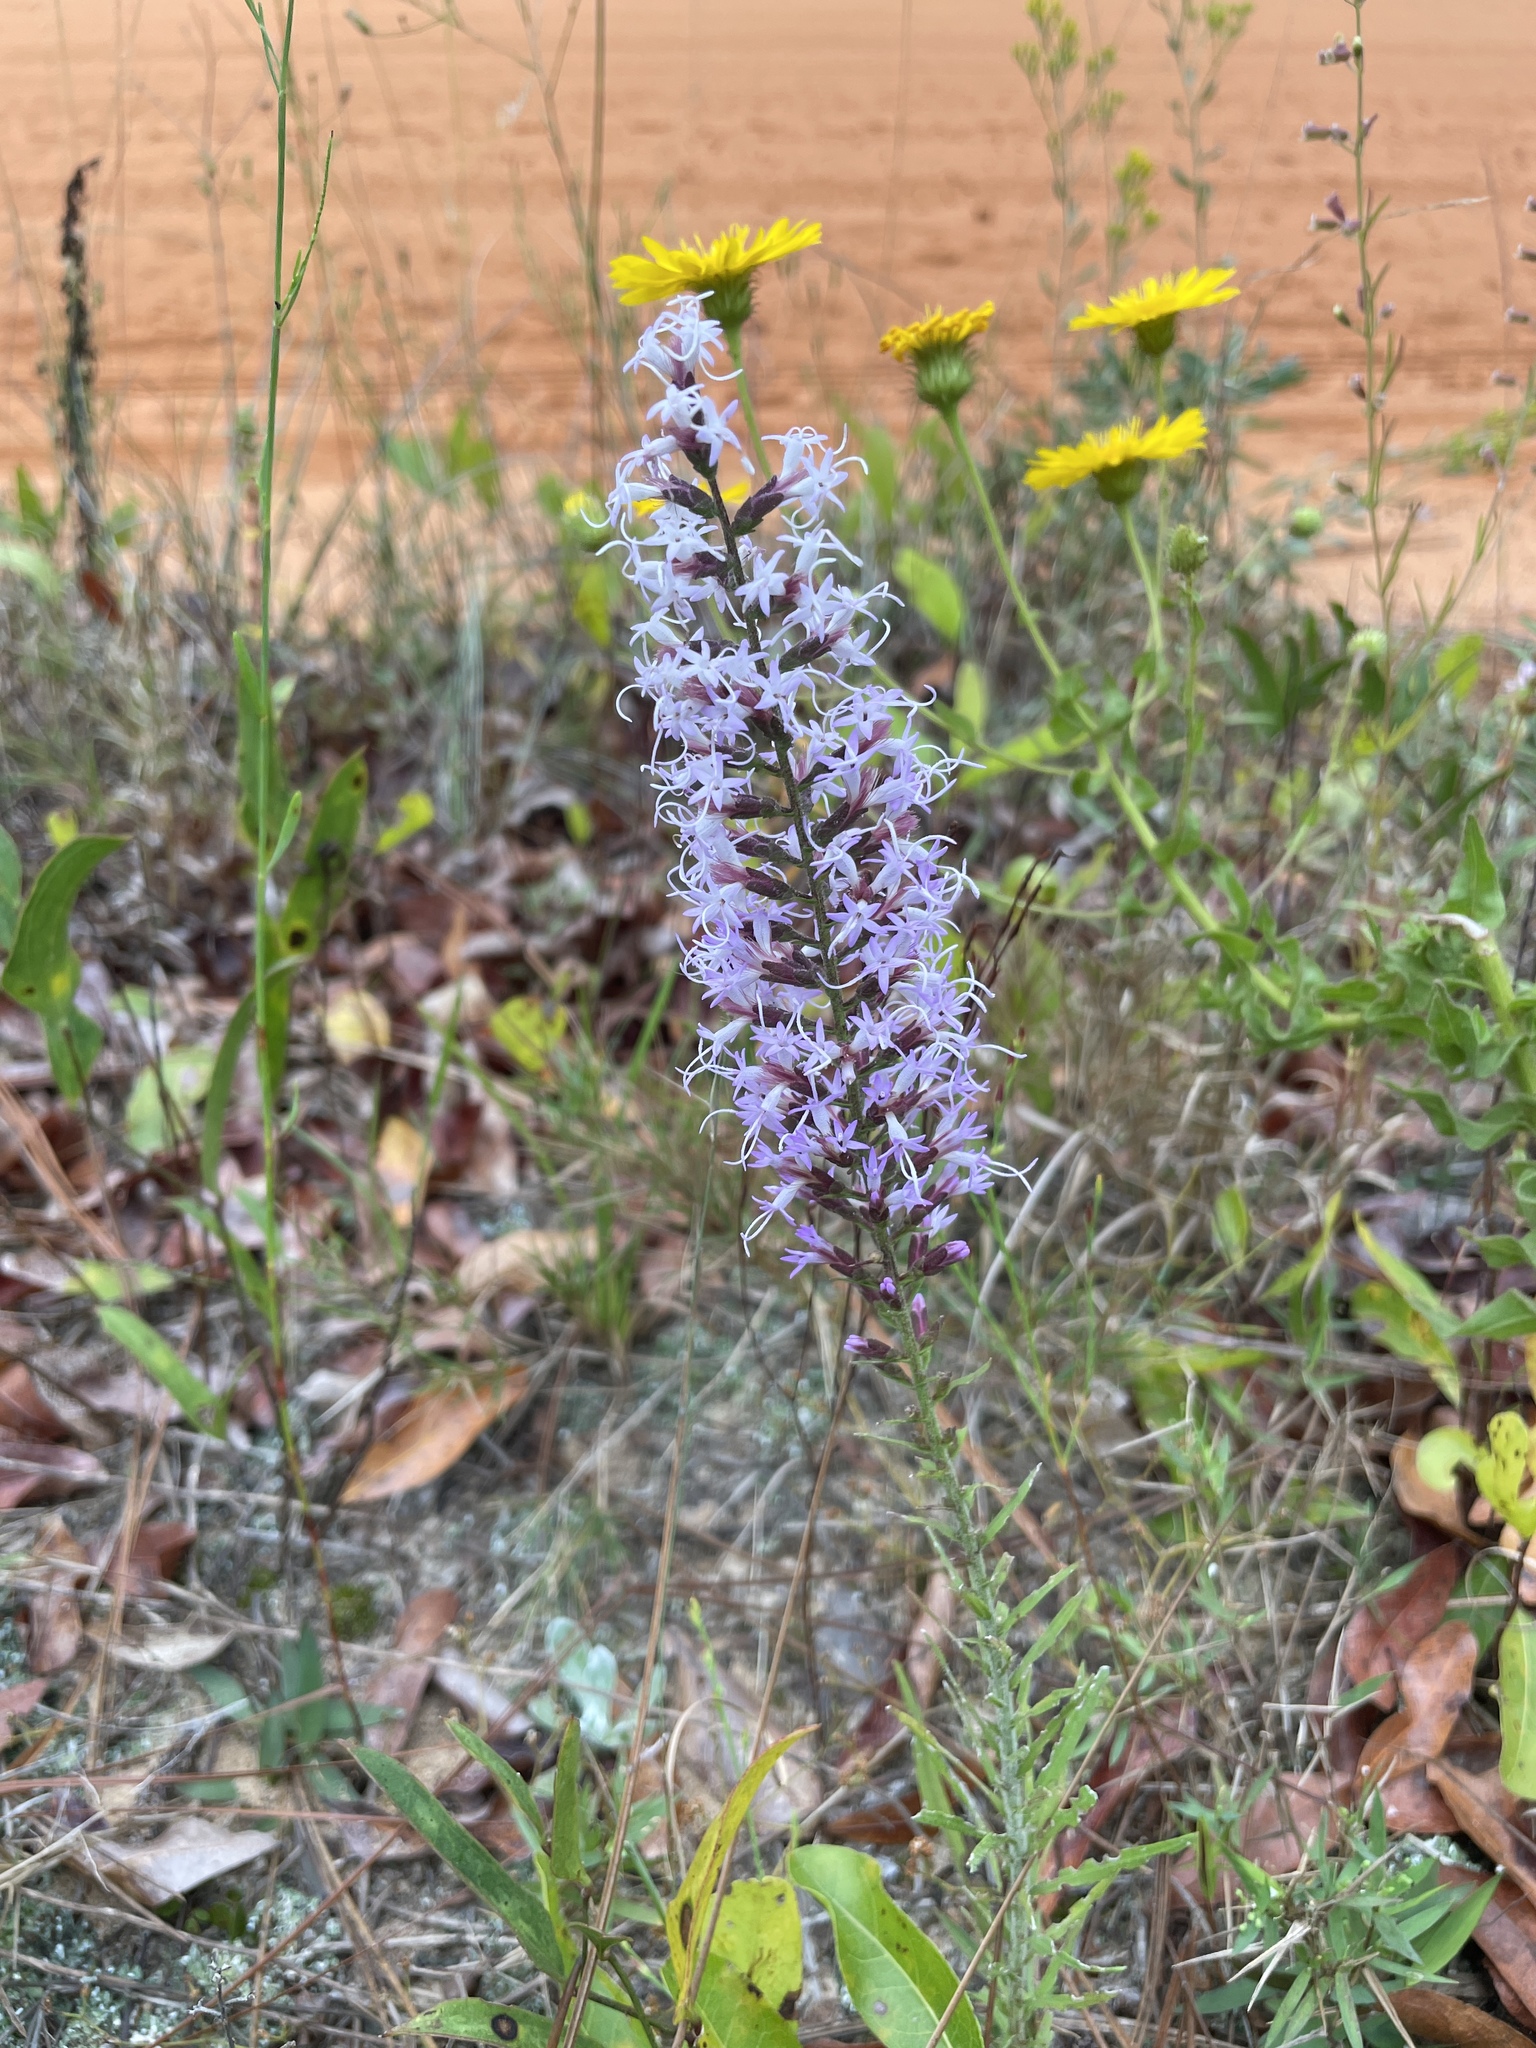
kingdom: Plantae
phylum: Tracheophyta
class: Magnoliopsida
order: Asterales
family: Asteraceae
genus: Liatris
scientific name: Liatris gracilis
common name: Slender gayfeather
